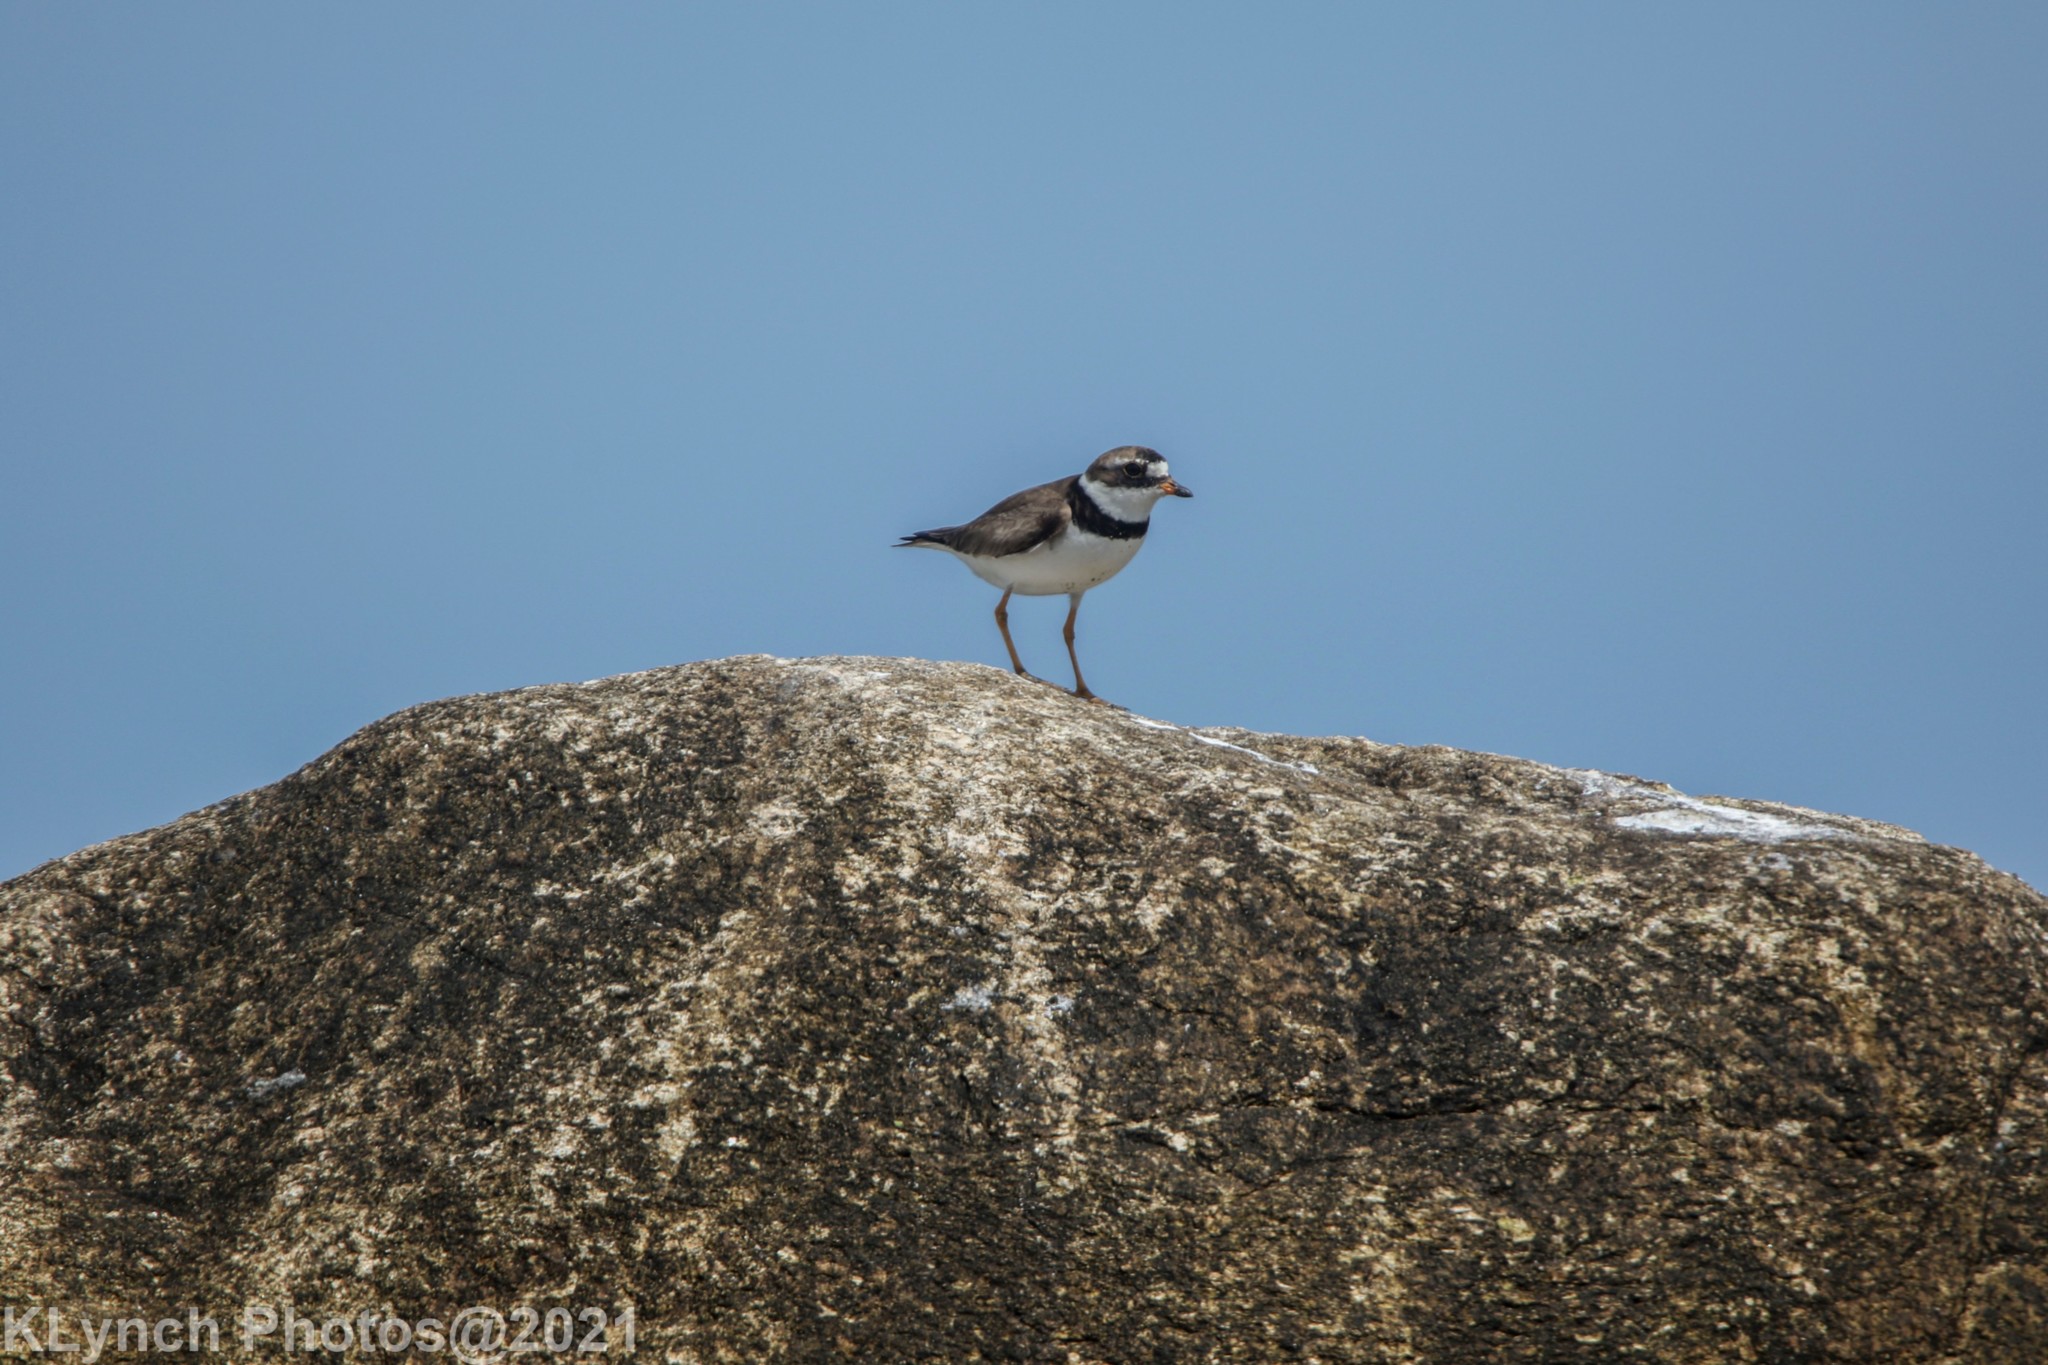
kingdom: Animalia
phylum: Chordata
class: Aves
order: Charadriiformes
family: Charadriidae
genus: Charadrius
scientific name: Charadrius semipalmatus
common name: Semipalmated plover
